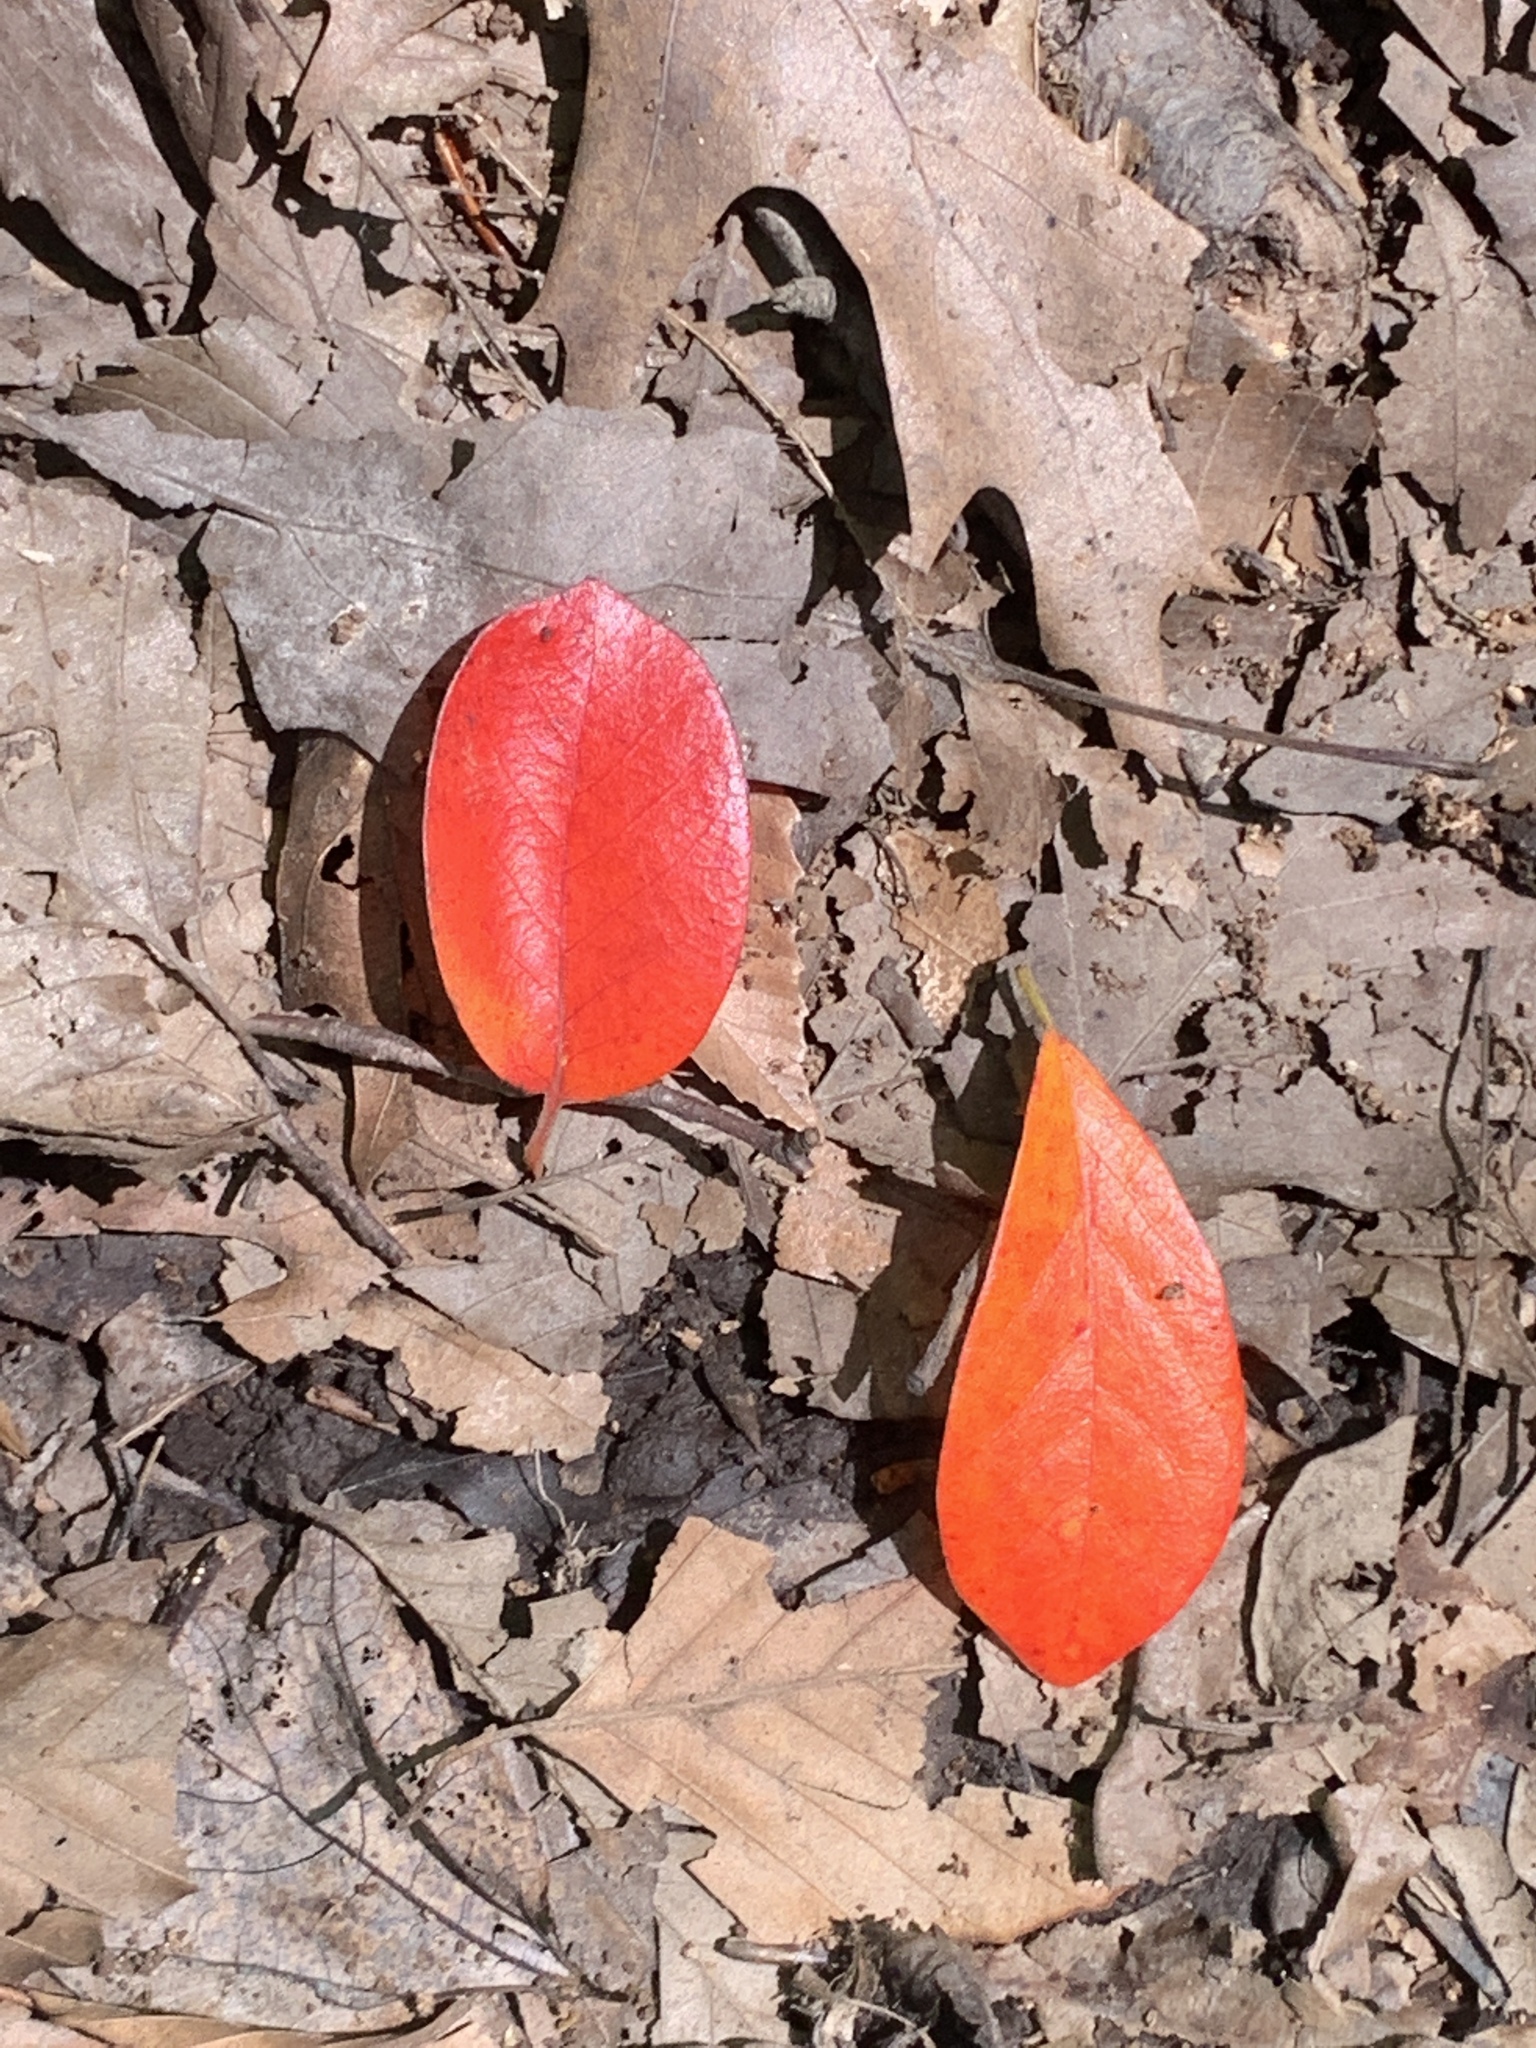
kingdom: Plantae
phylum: Tracheophyta
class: Magnoliopsida
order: Cornales
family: Nyssaceae
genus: Nyssa
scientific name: Nyssa sylvatica
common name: Black tupelo
